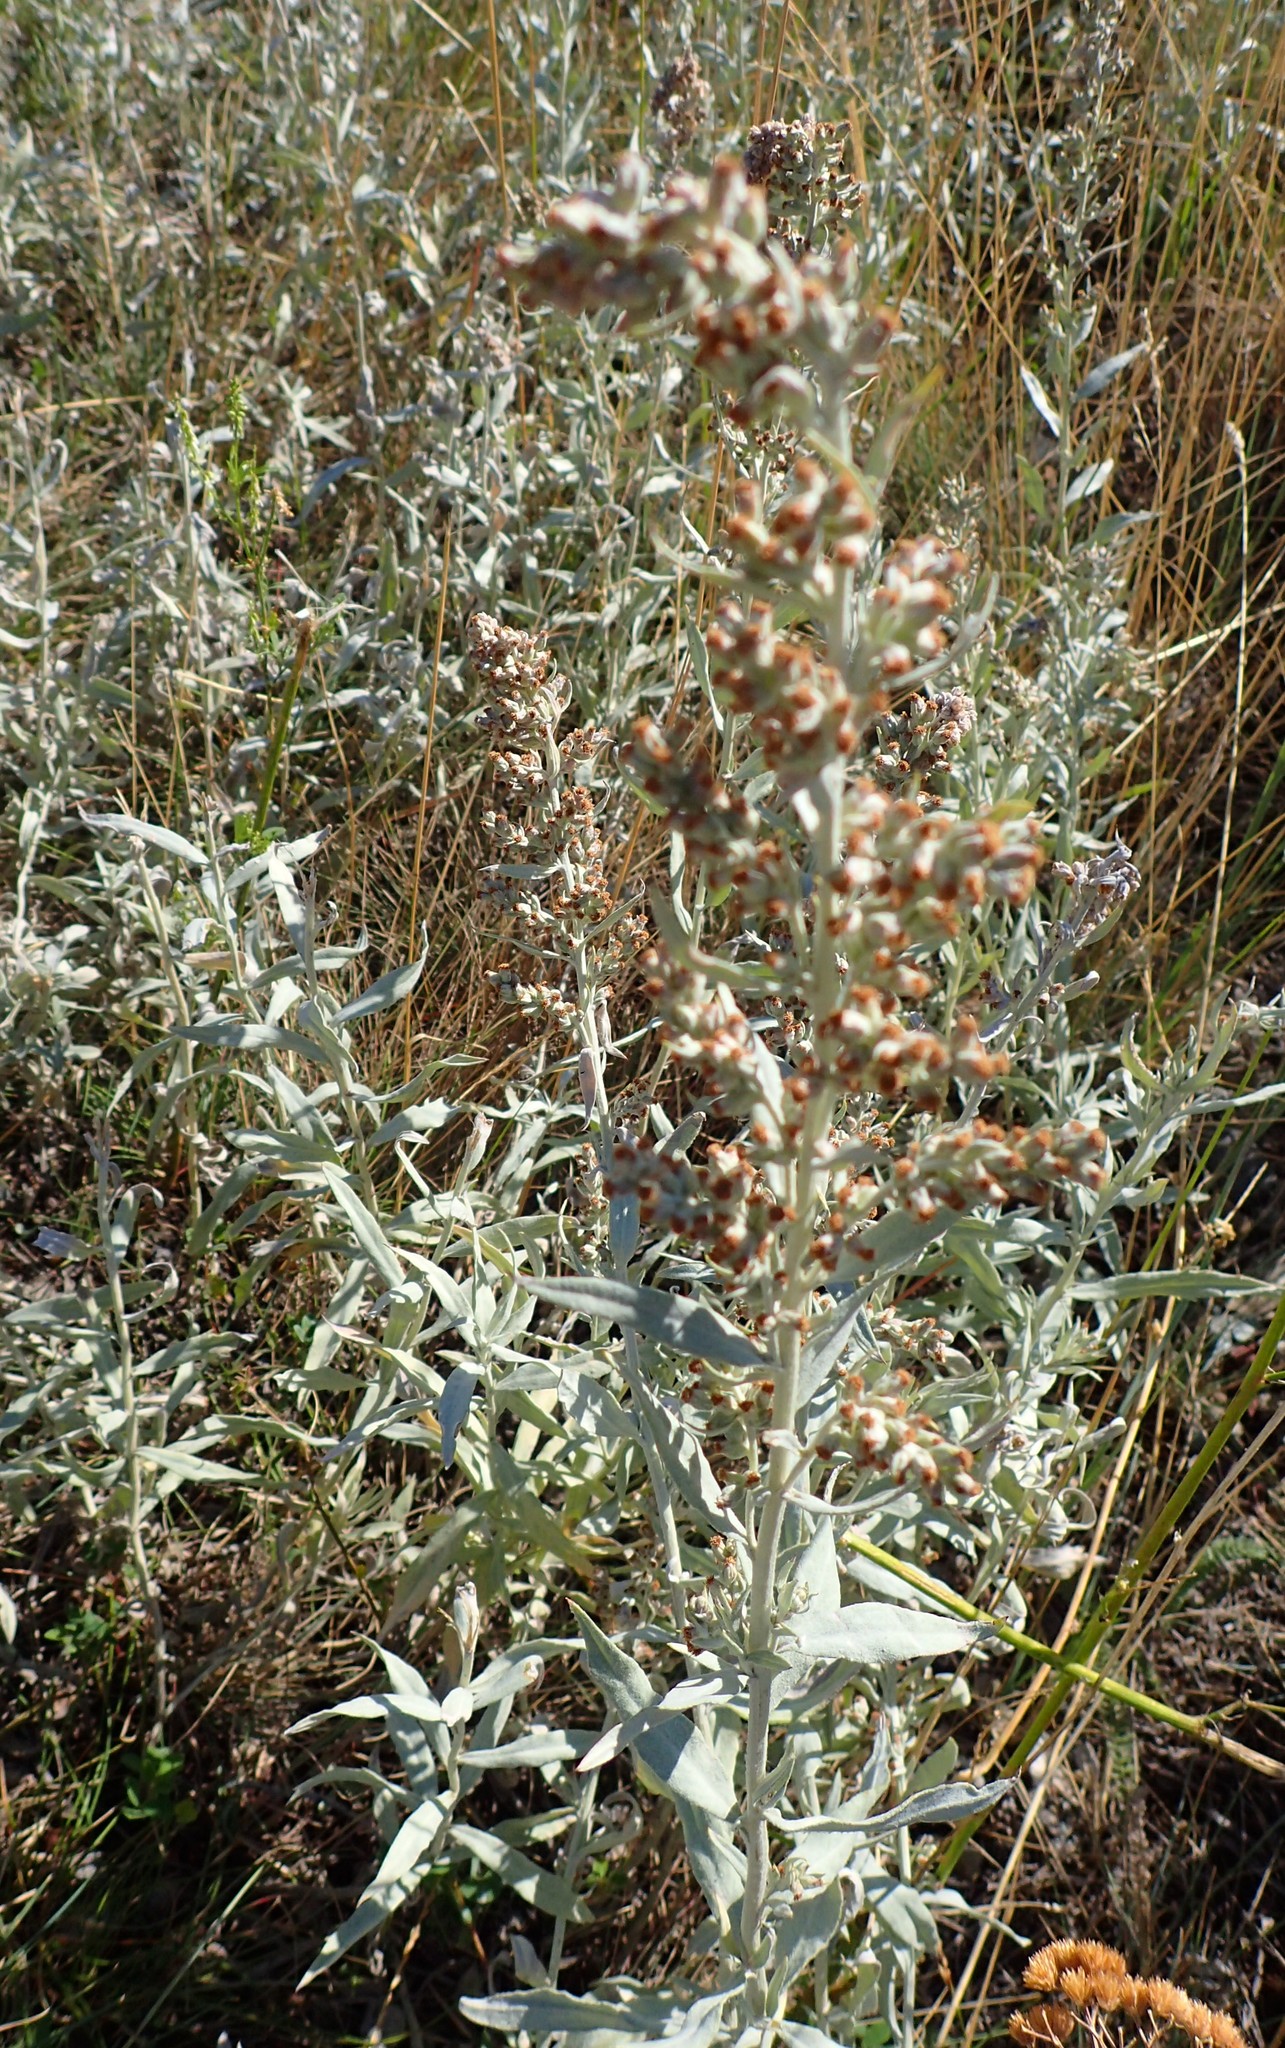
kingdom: Plantae
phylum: Tracheophyta
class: Magnoliopsida
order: Asterales
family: Asteraceae
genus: Artemisia
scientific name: Artemisia ludoviciana
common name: Western mugwort
